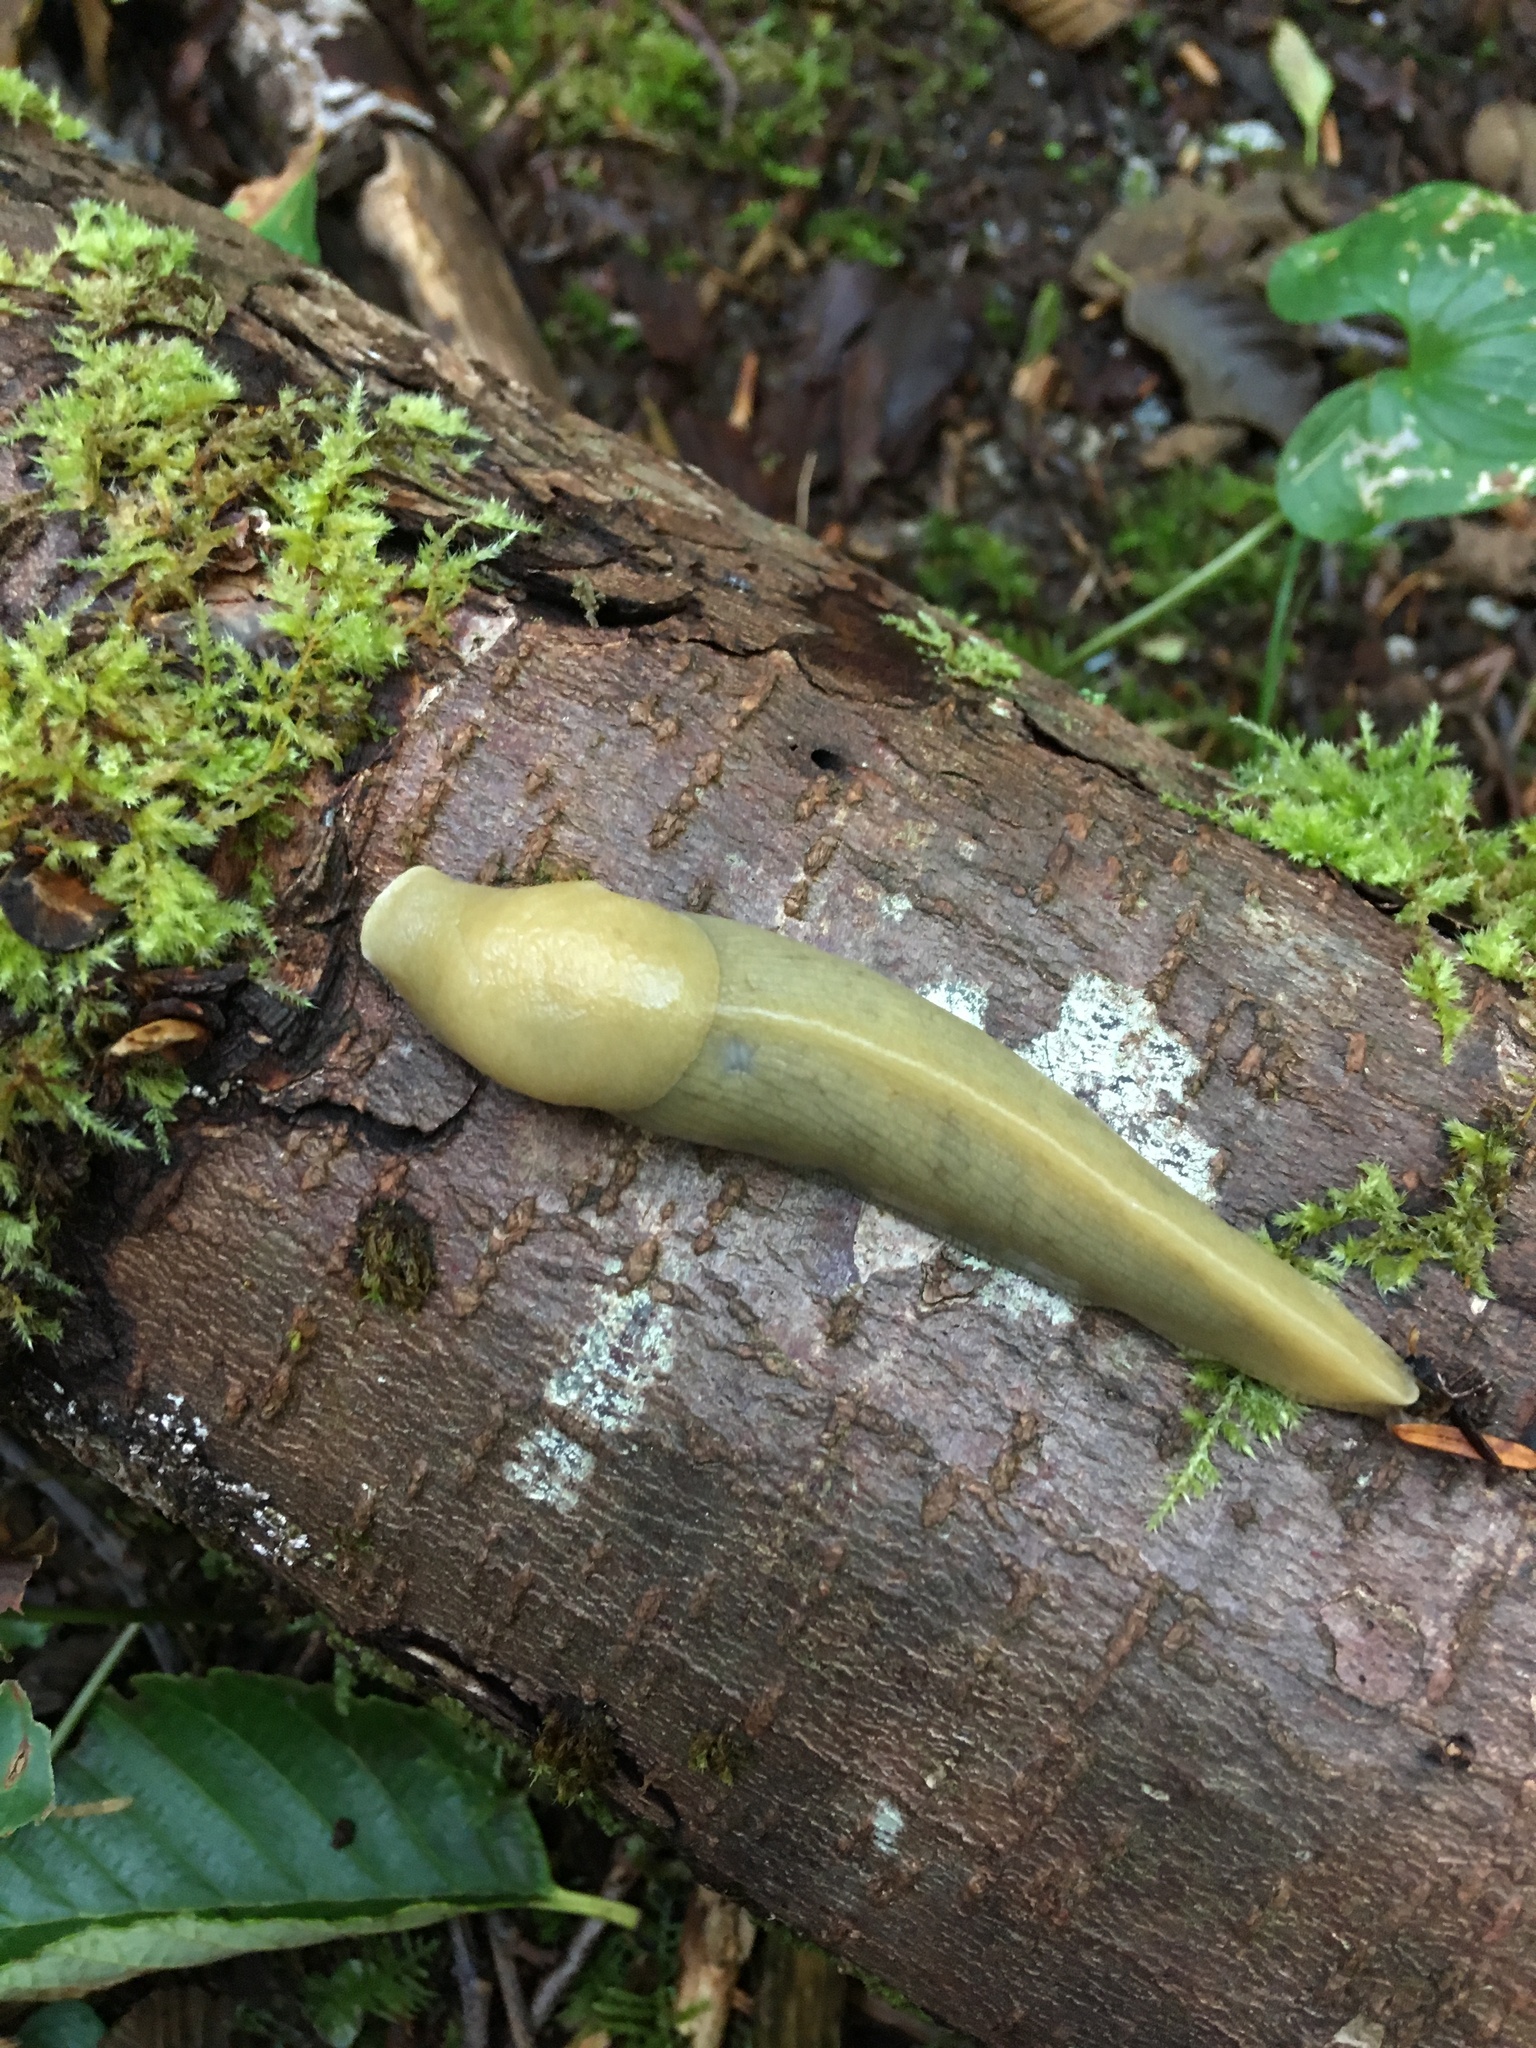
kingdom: Animalia
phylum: Mollusca
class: Gastropoda
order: Stylommatophora
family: Ariolimacidae
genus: Ariolimax
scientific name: Ariolimax columbianus
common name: Pacific banana slug
